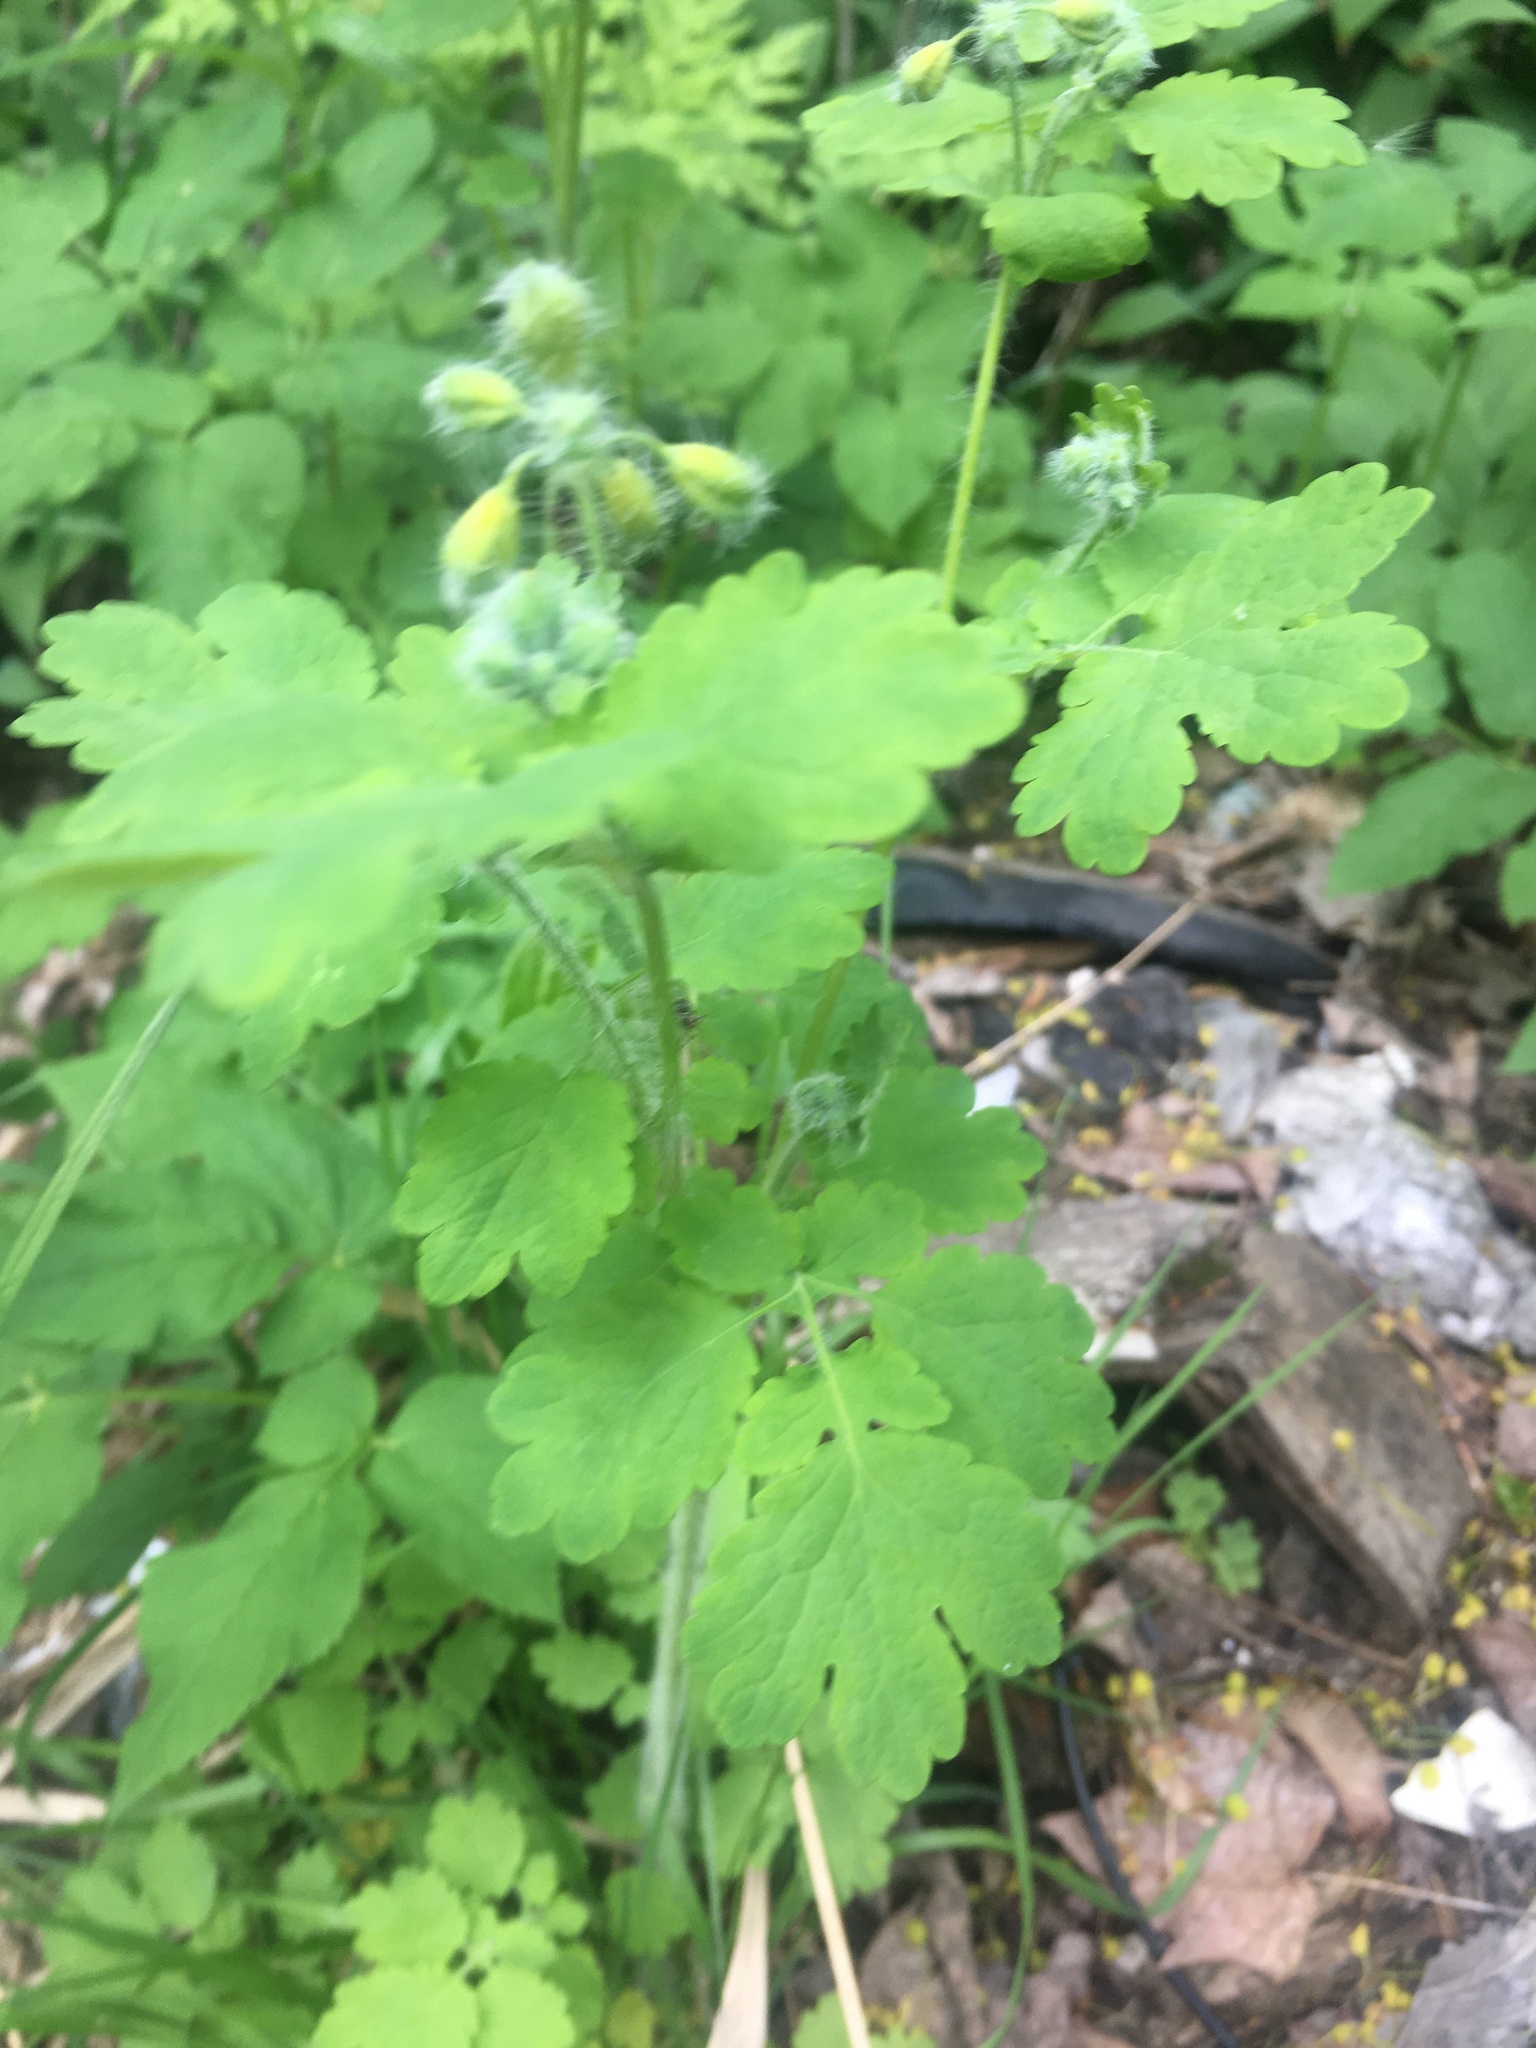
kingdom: Plantae
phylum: Tracheophyta
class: Magnoliopsida
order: Ranunculales
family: Papaveraceae
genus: Chelidonium
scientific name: Chelidonium majus
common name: Greater celandine
